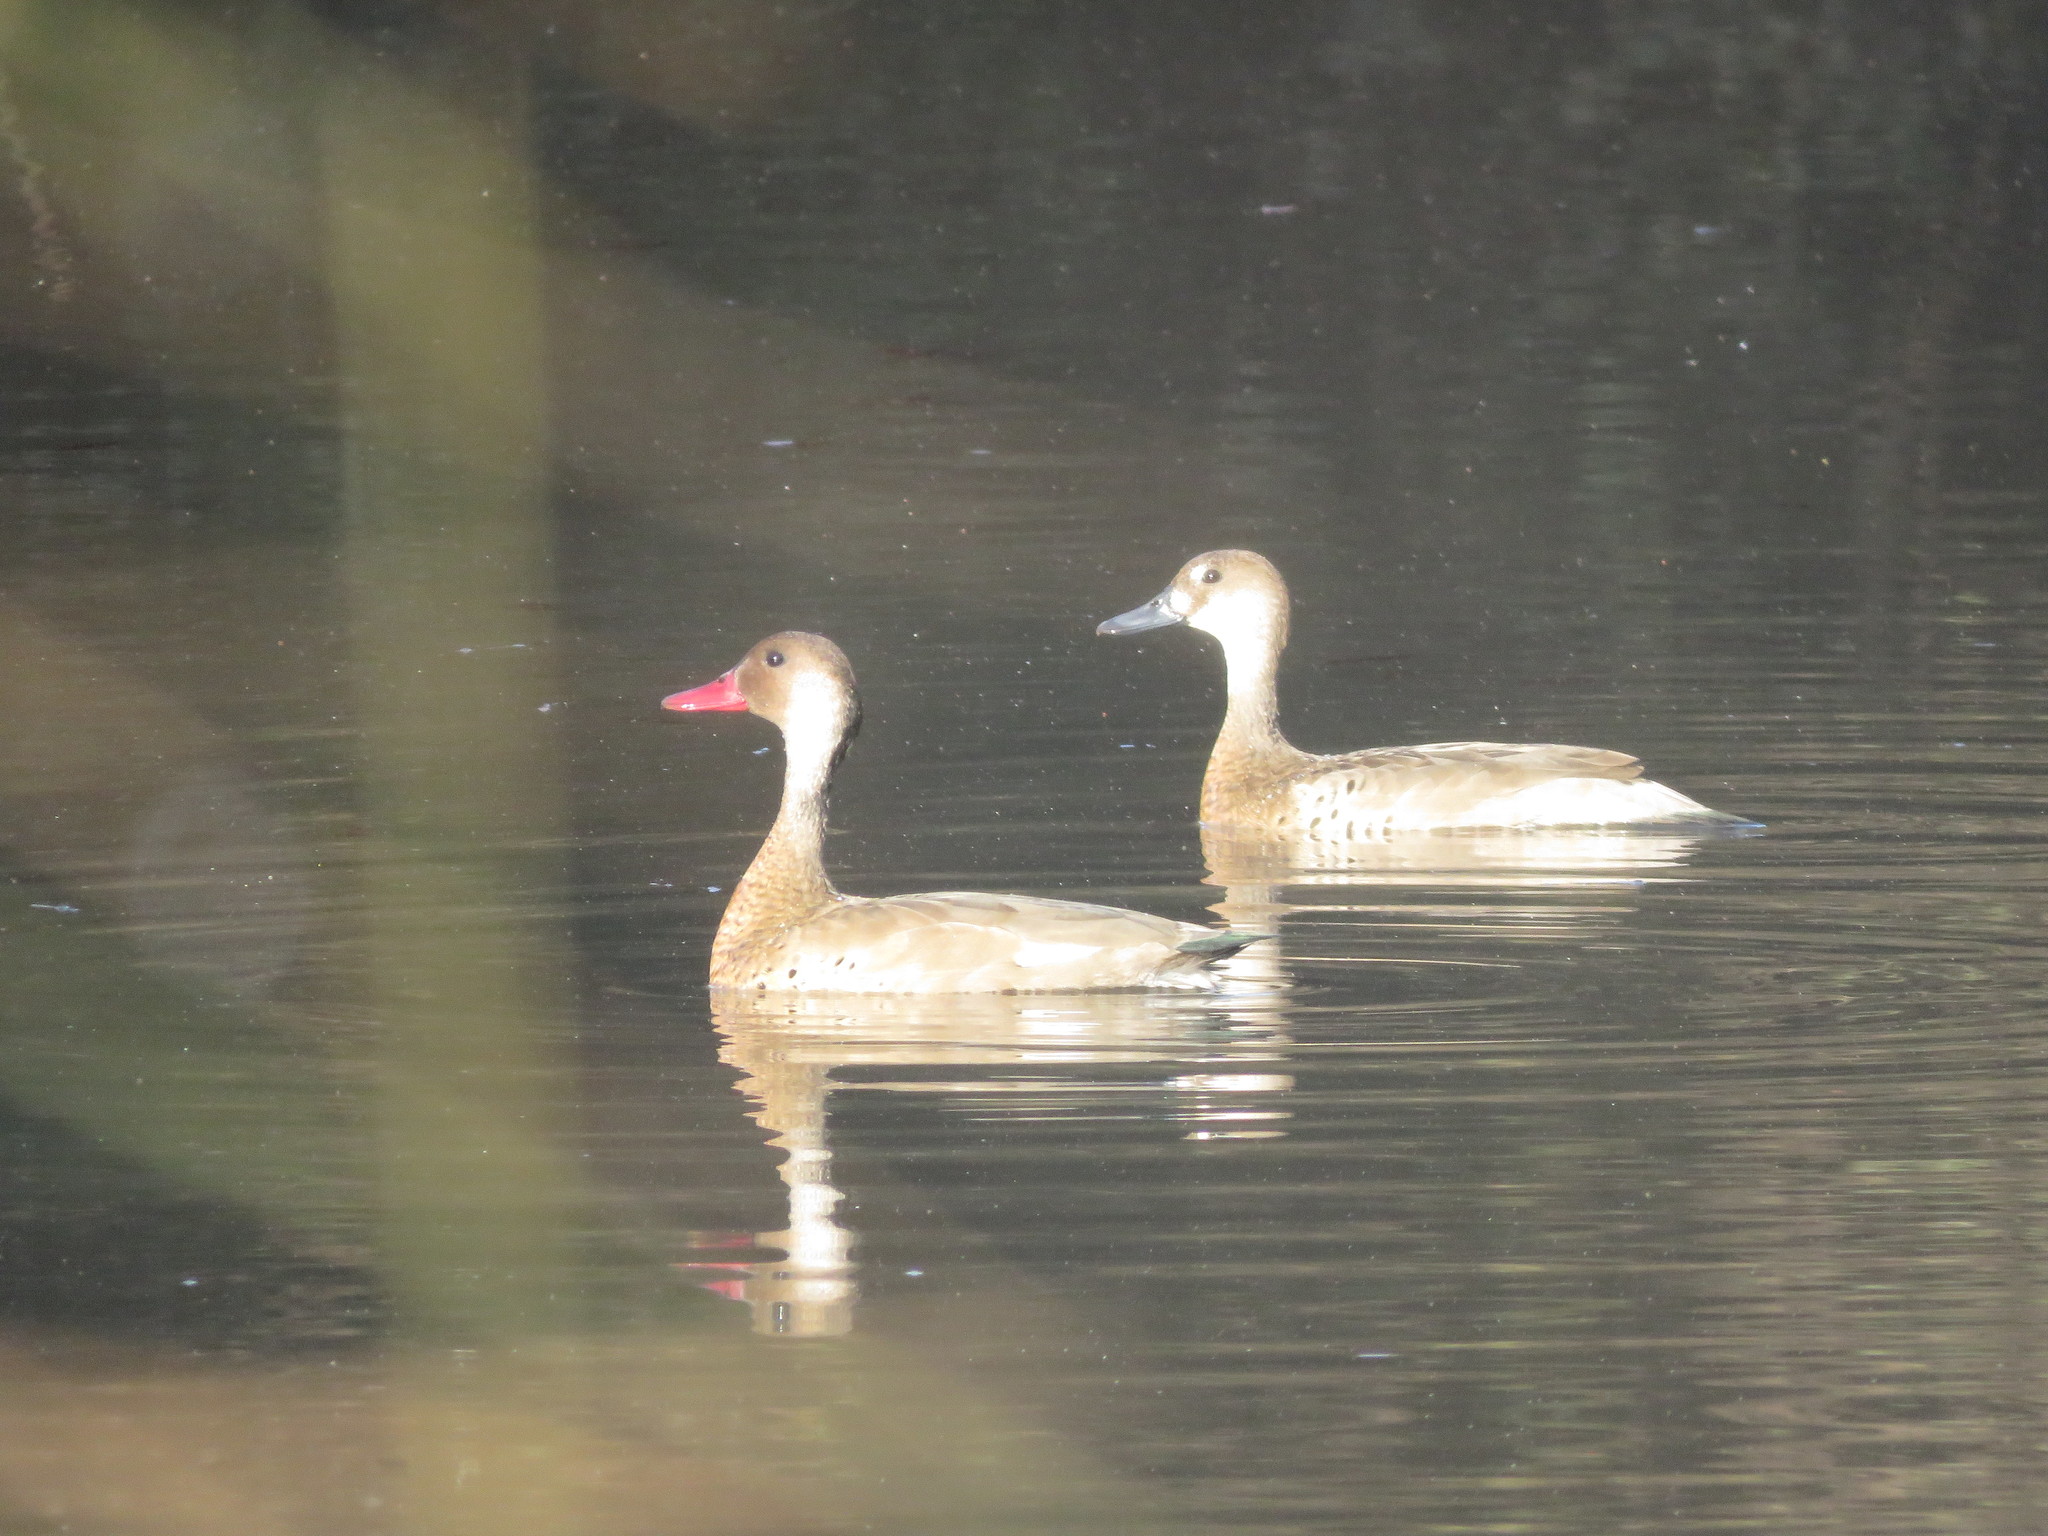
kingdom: Animalia
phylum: Chordata
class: Aves
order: Anseriformes
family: Anatidae
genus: Amazonetta
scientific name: Amazonetta brasiliensis
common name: Brazilian teal
